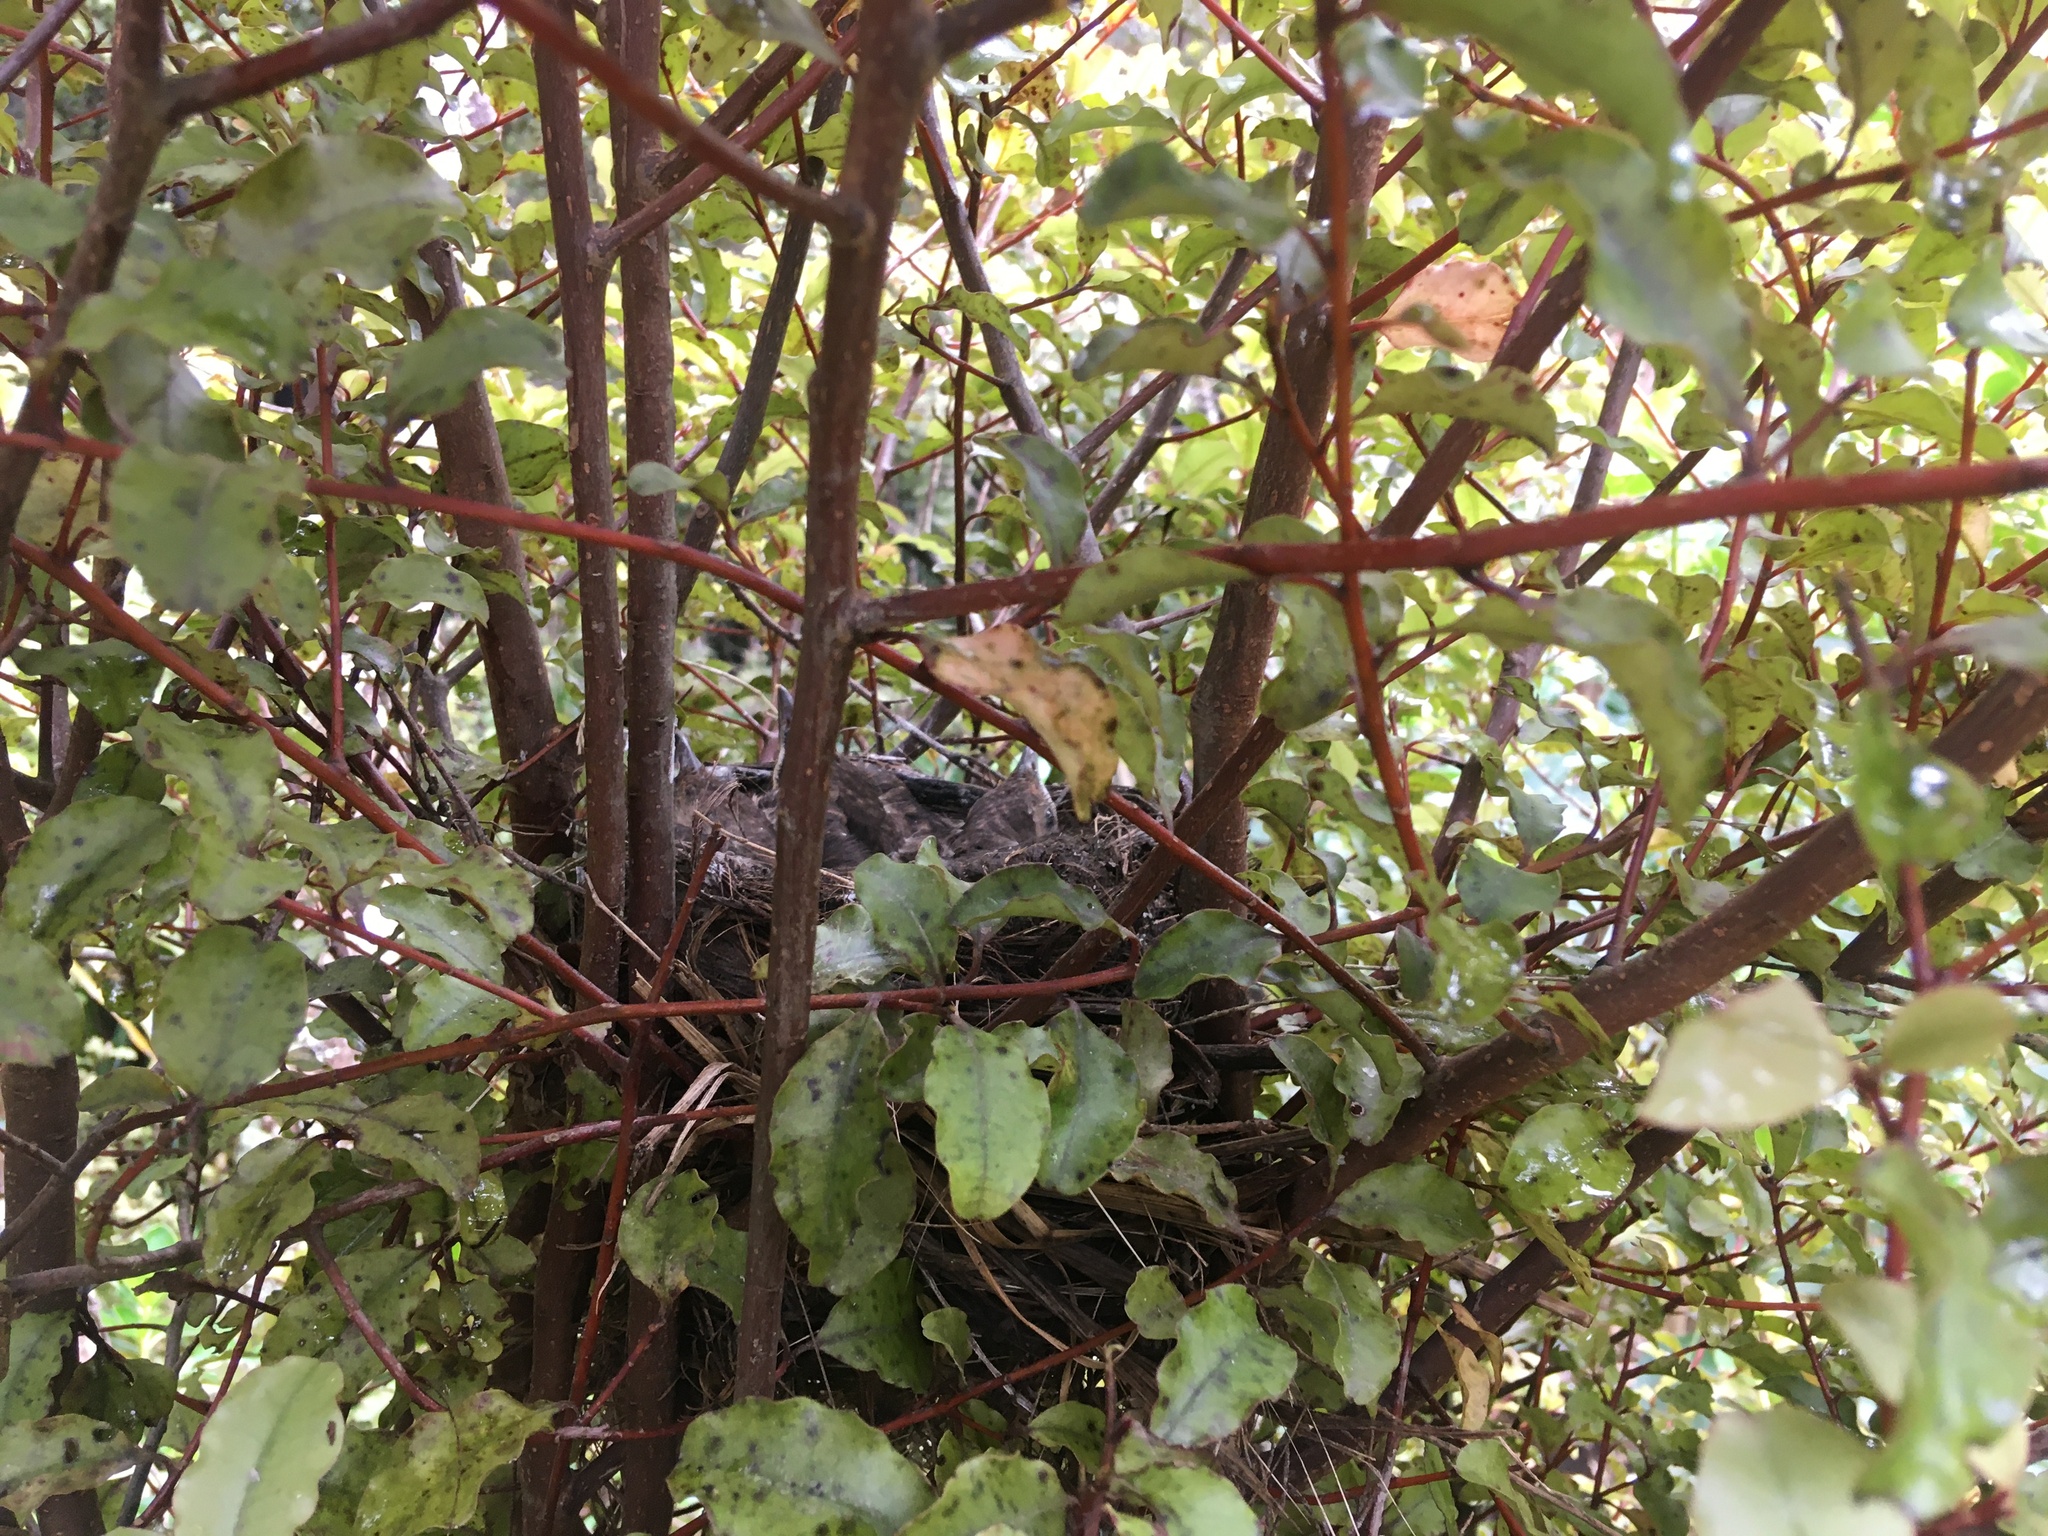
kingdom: Animalia
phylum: Chordata
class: Aves
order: Passeriformes
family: Turdidae
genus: Turdus
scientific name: Turdus merula
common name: Common blackbird
